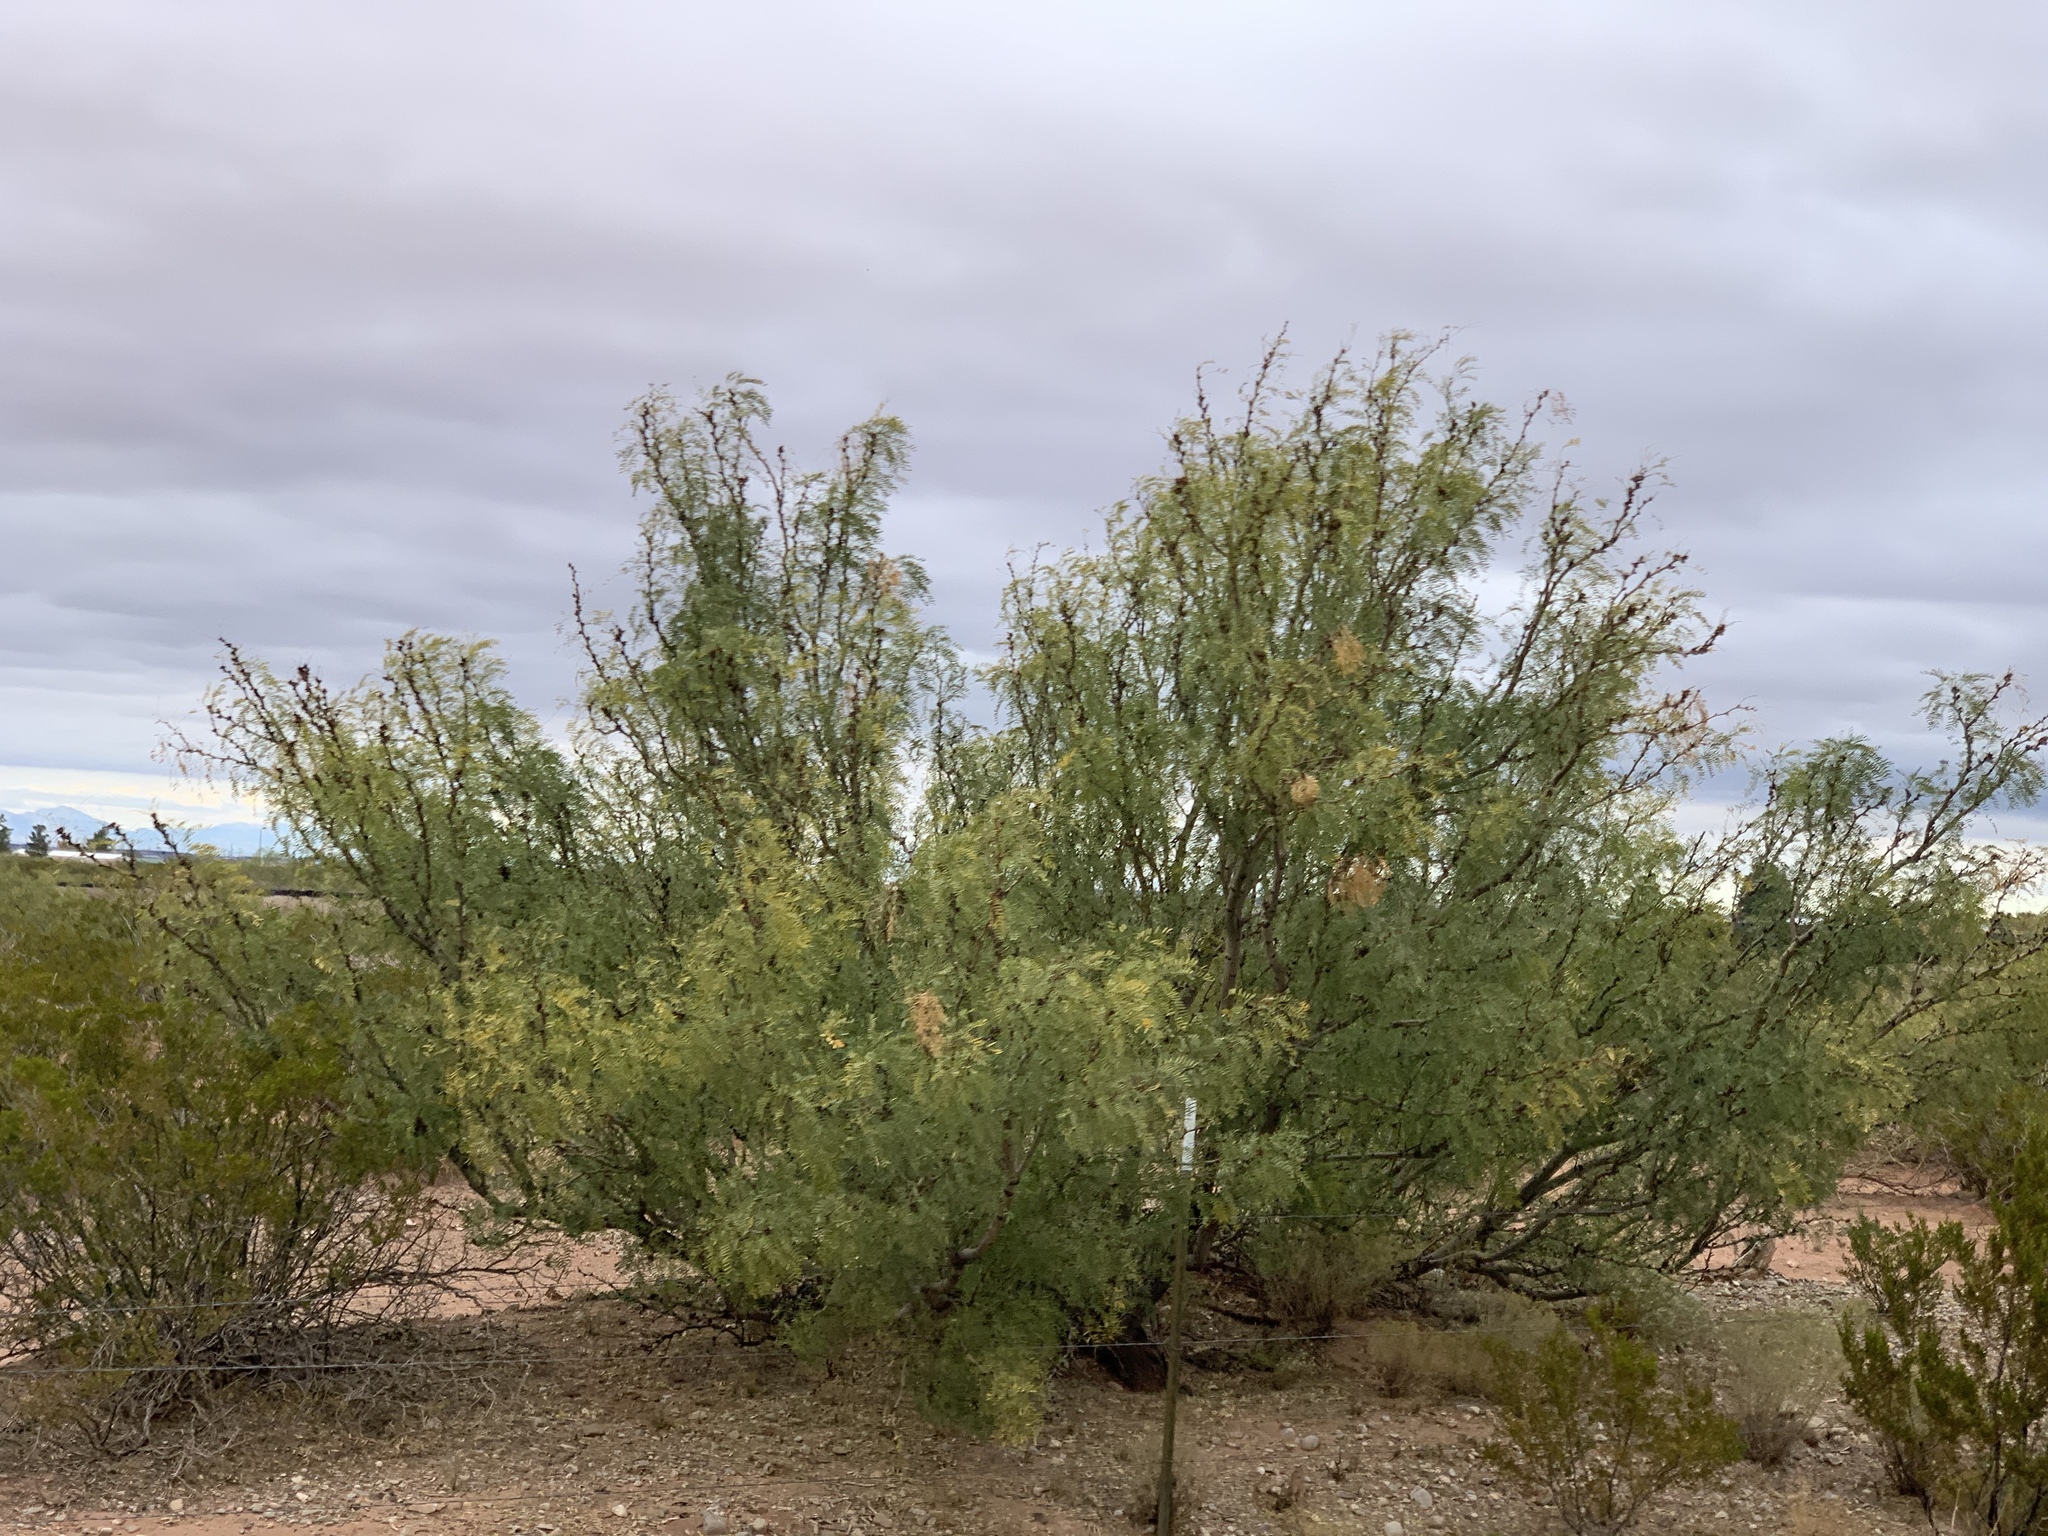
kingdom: Plantae
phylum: Tracheophyta
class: Magnoliopsida
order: Fabales
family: Fabaceae
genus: Prosopis
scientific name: Prosopis glandulosa
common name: Honey mesquite
